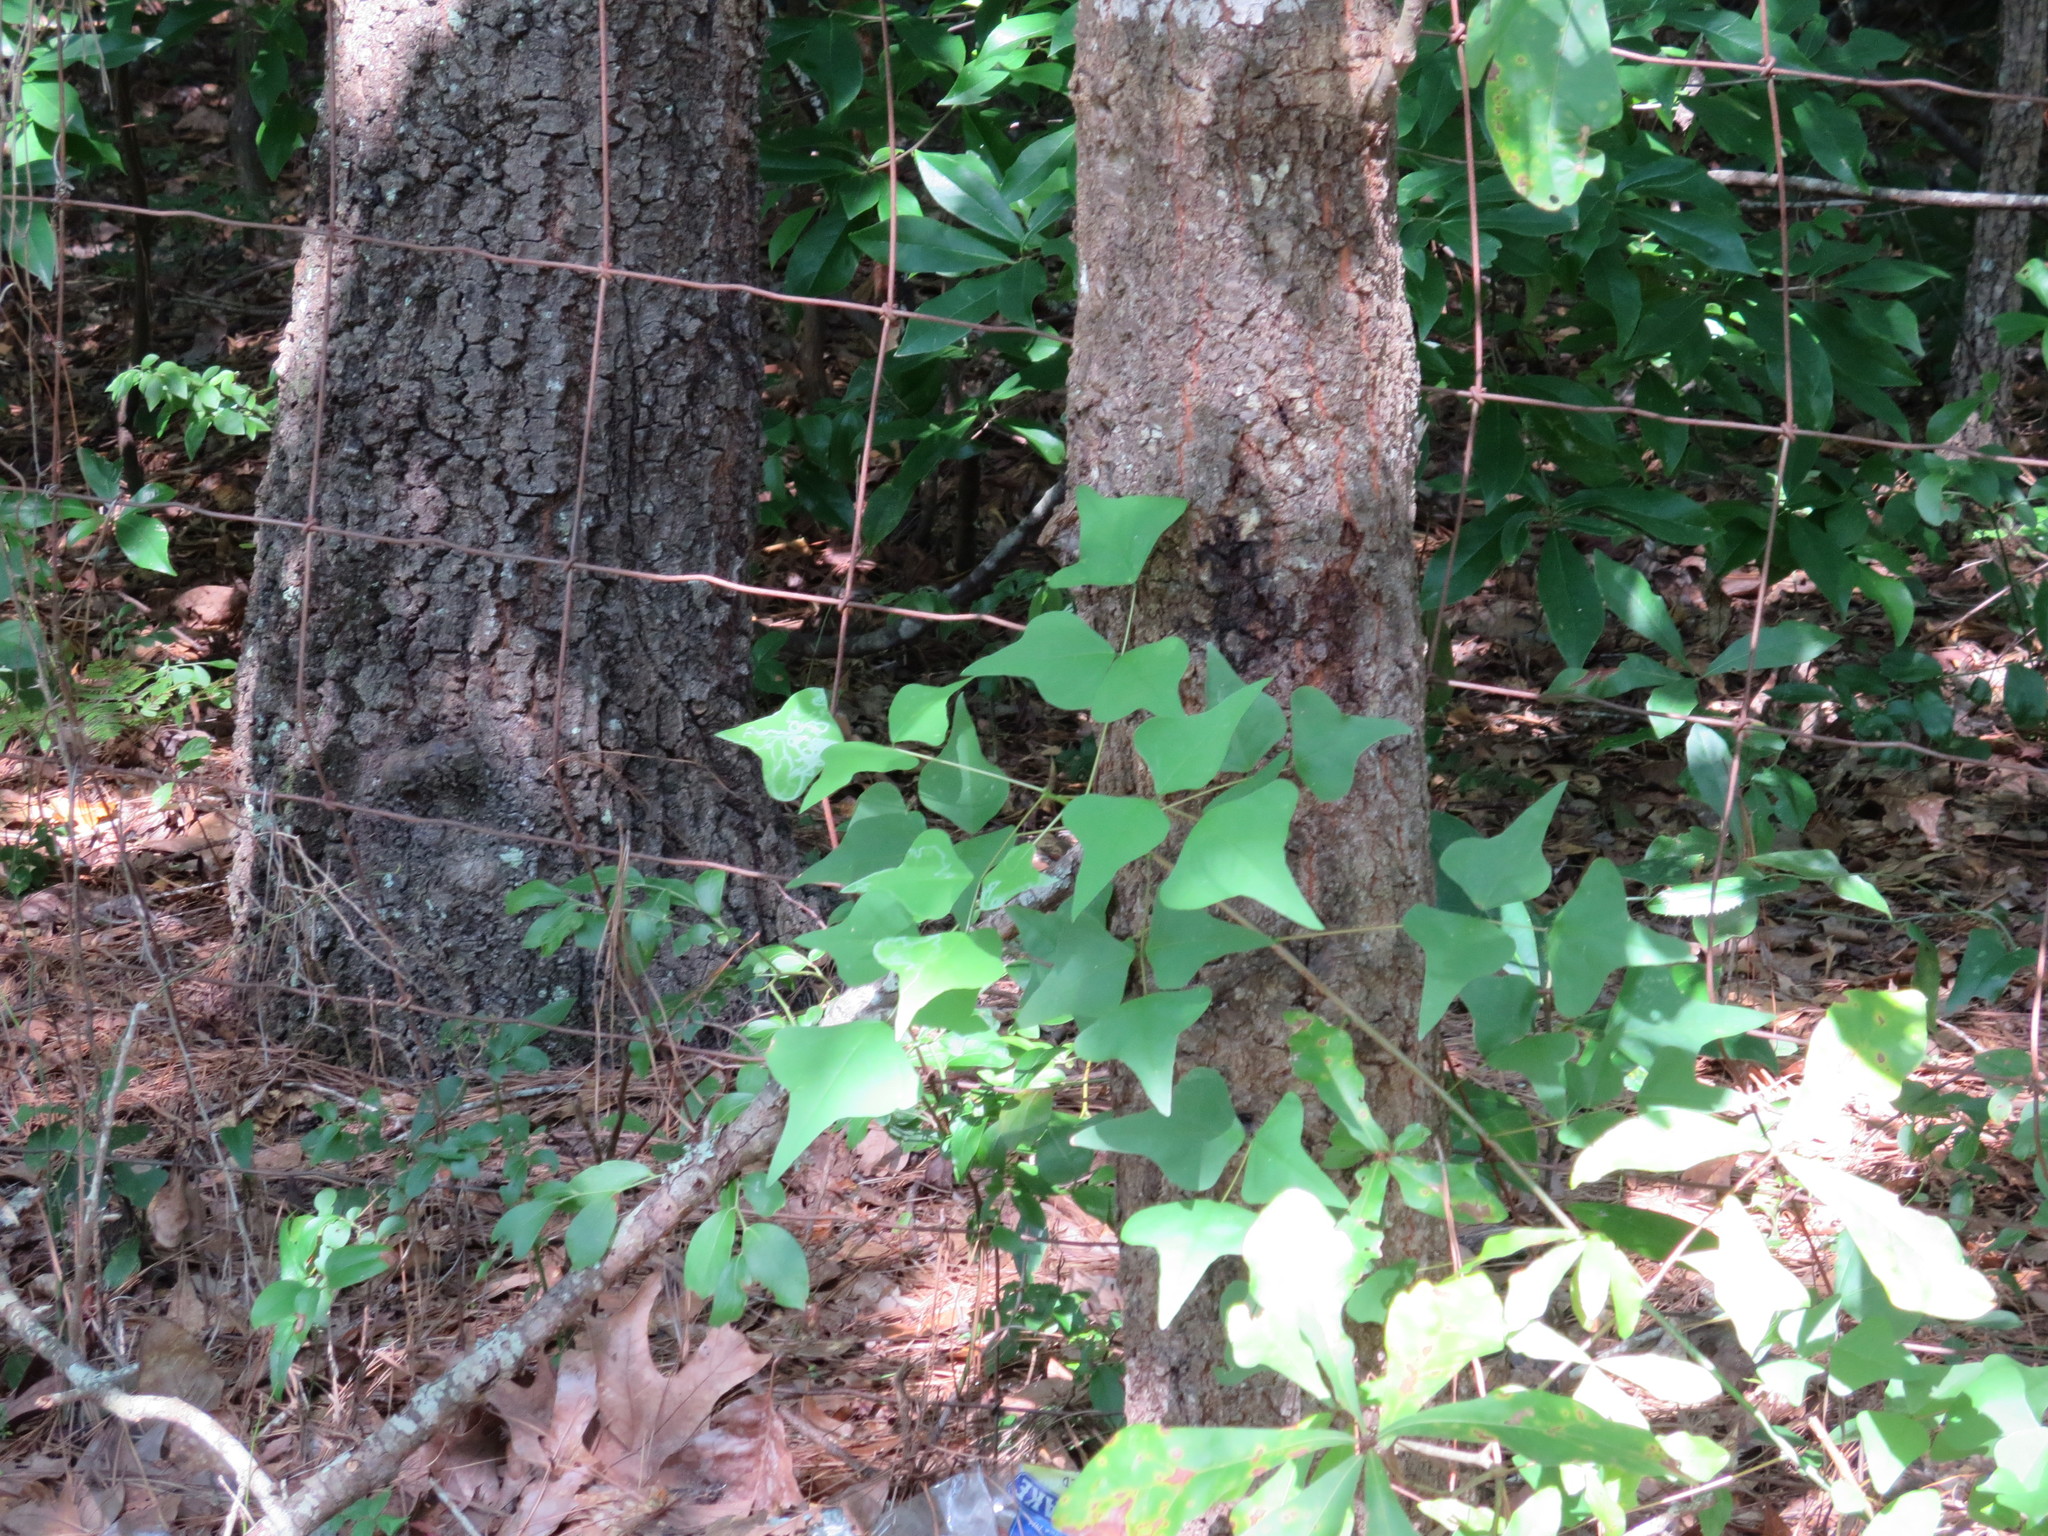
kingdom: Plantae
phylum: Tracheophyta
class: Magnoliopsida
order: Fabales
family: Fabaceae
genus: Erythrina
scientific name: Erythrina herbacea
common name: Coral-bean
